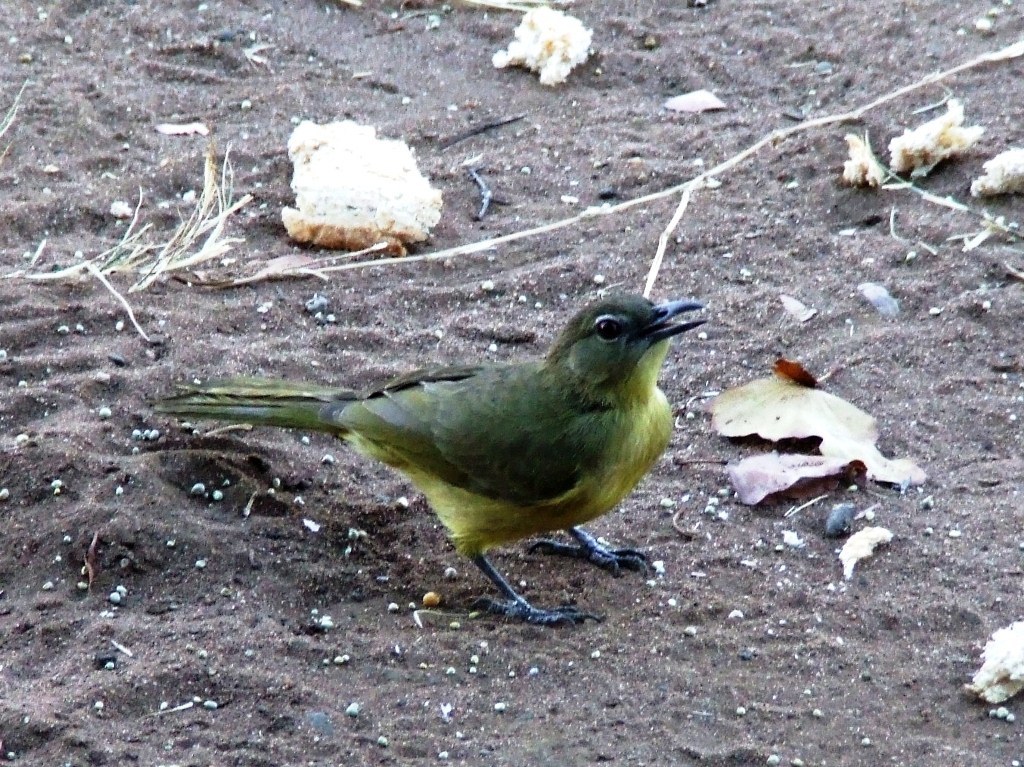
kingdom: Animalia
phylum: Chordata
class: Aves
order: Passeriformes
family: Pycnonotidae
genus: Chlorocichla
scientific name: Chlorocichla flaviventris
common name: Yellow-bellied greenbul
